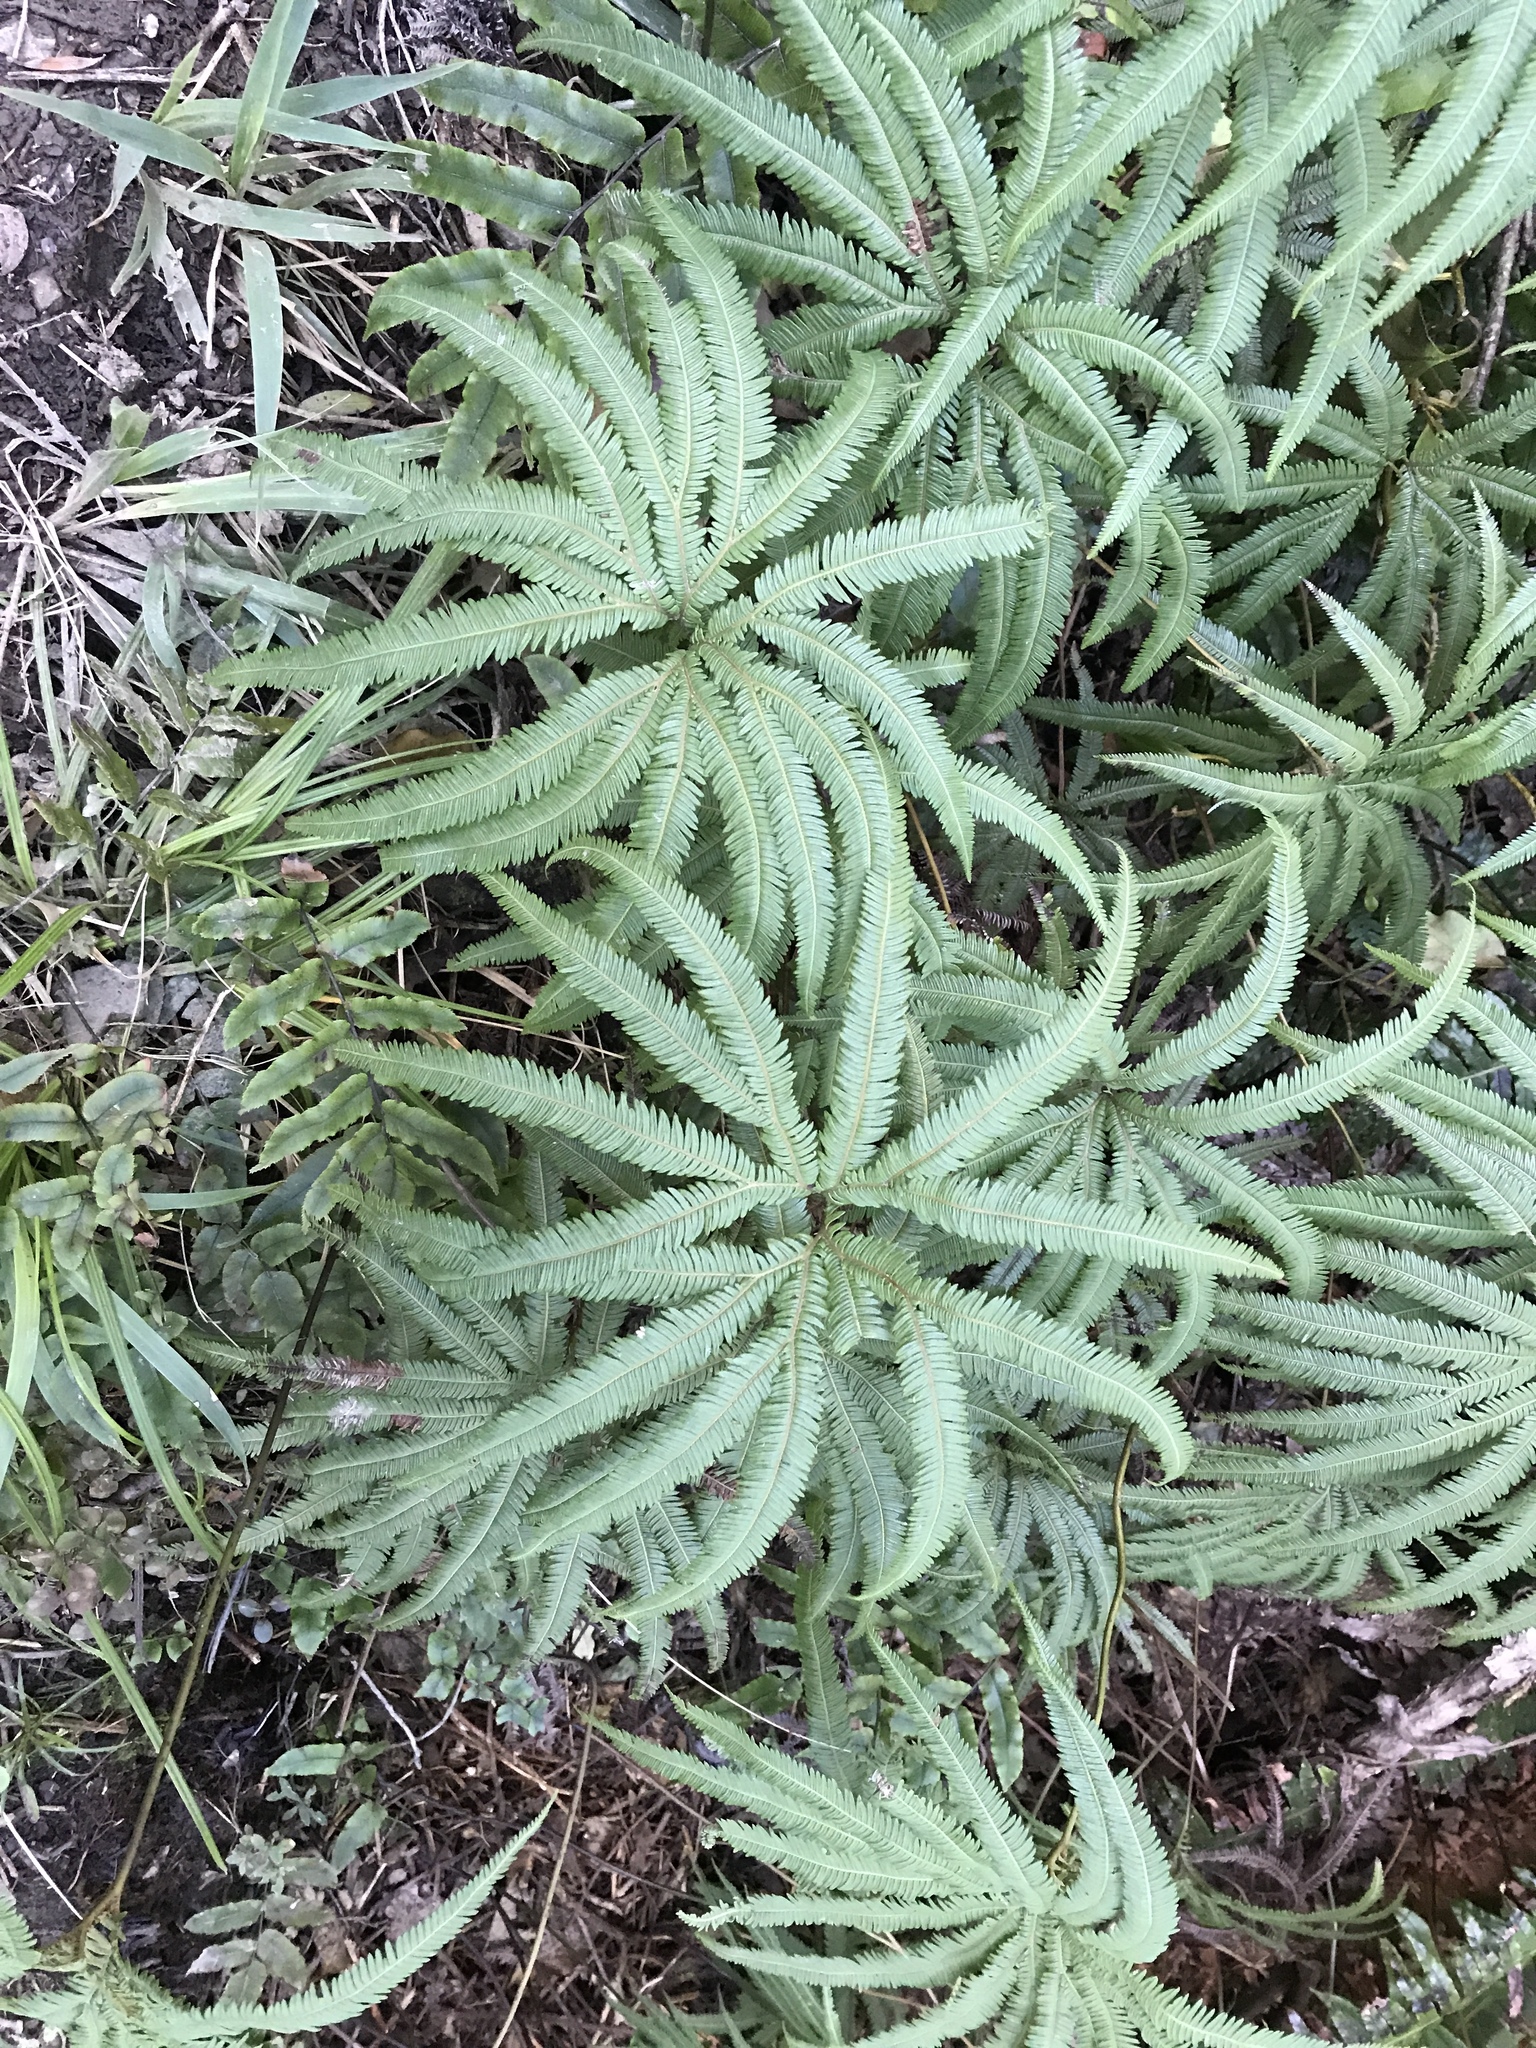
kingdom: Plantae
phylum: Tracheophyta
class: Polypodiopsida
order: Gleicheniales
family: Gleicheniaceae
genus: Sticherus
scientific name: Sticherus cunninghamii
